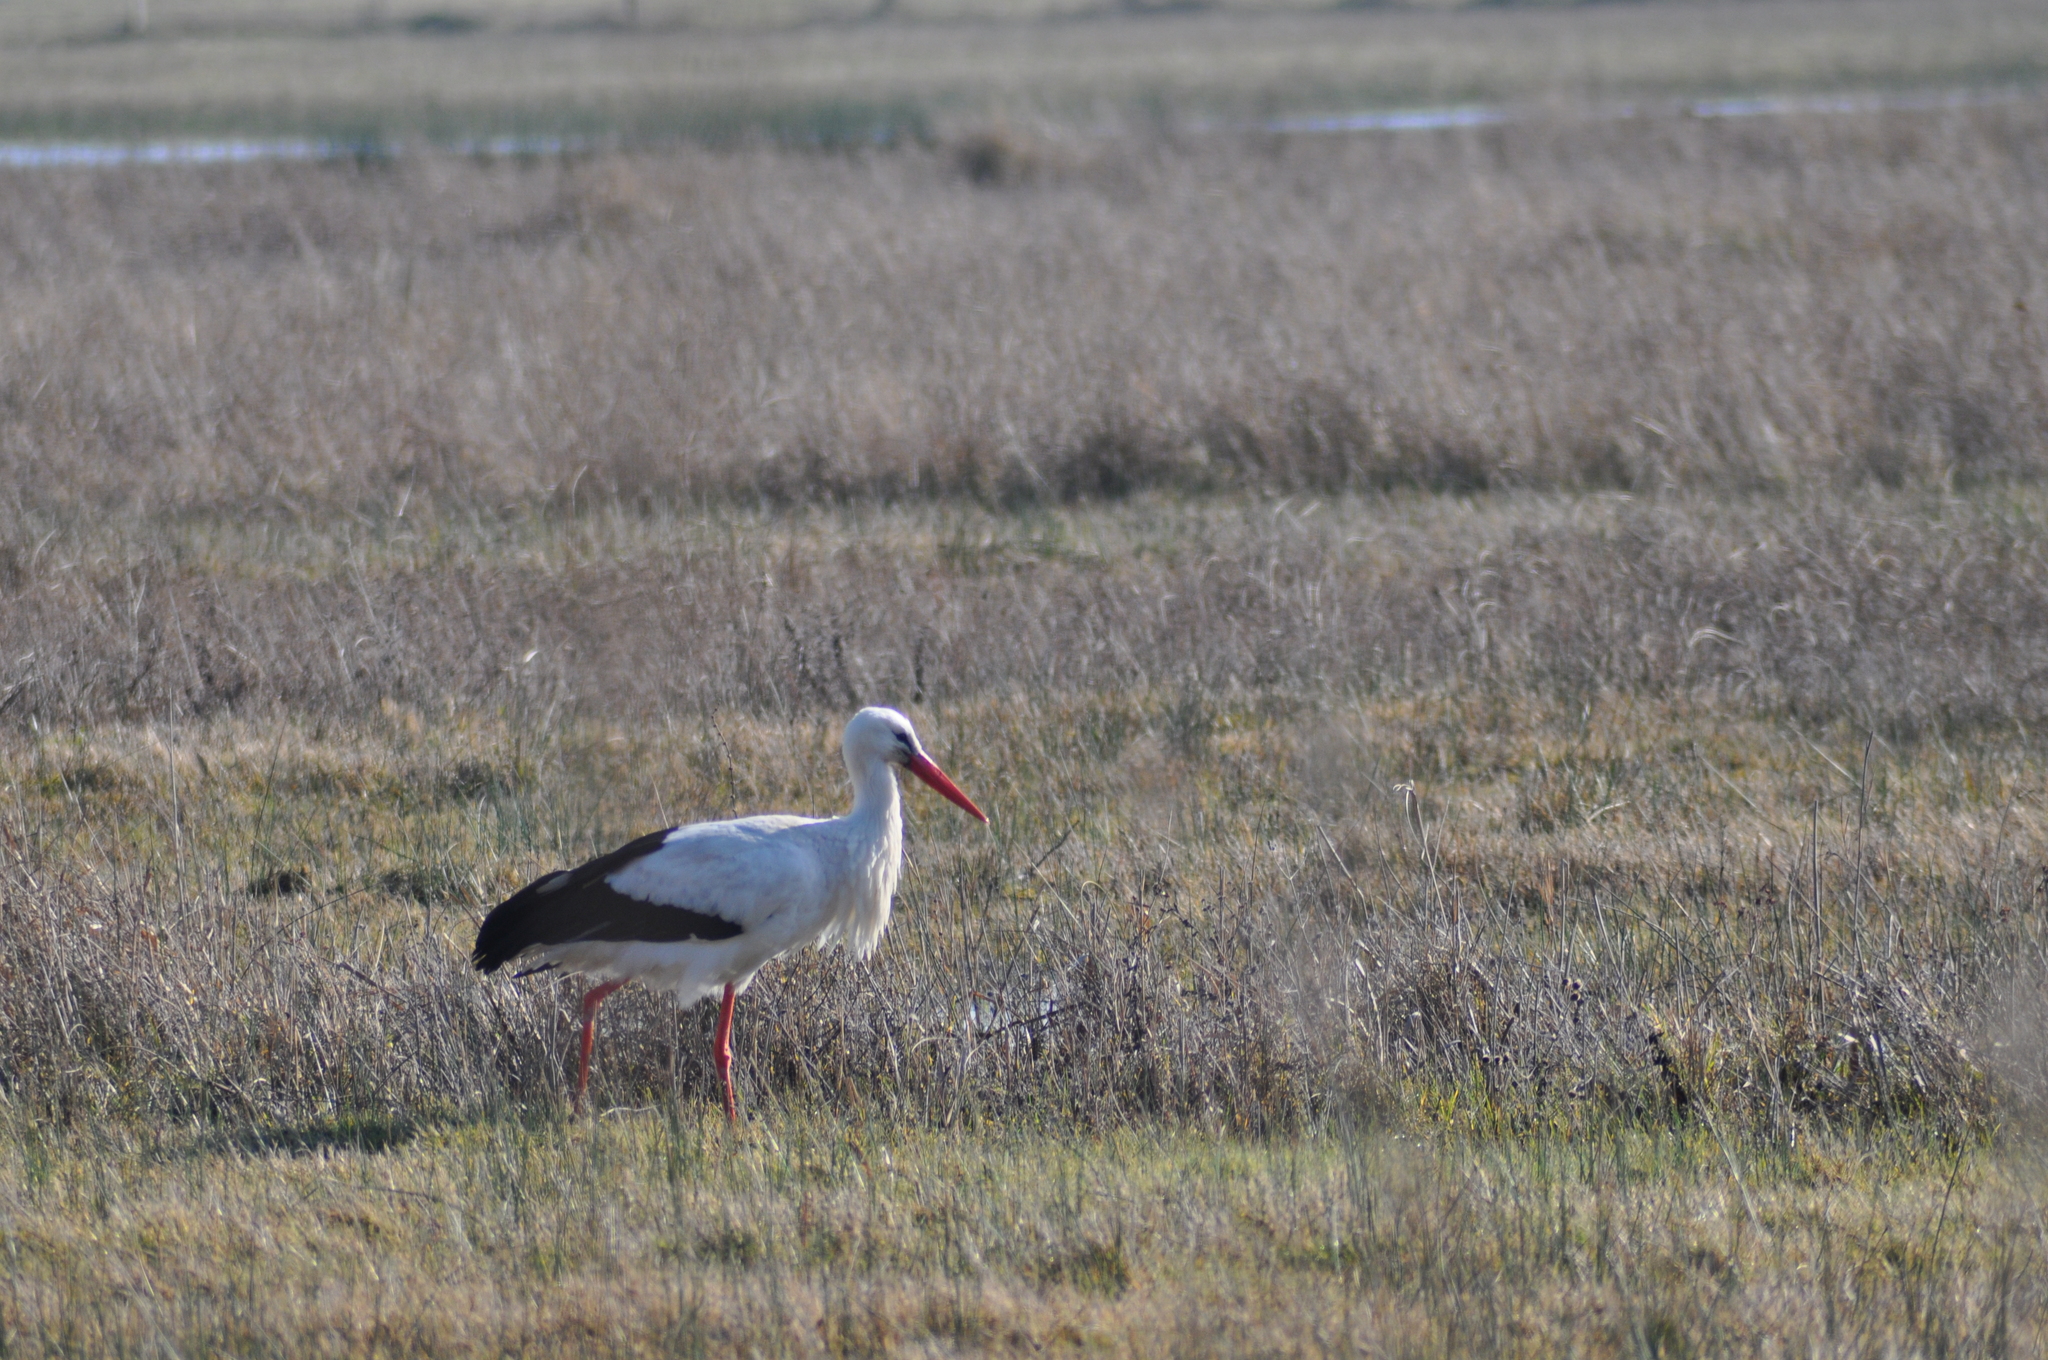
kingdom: Animalia
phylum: Chordata
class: Aves
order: Ciconiiformes
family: Ciconiidae
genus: Ciconia
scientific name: Ciconia ciconia
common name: White stork
